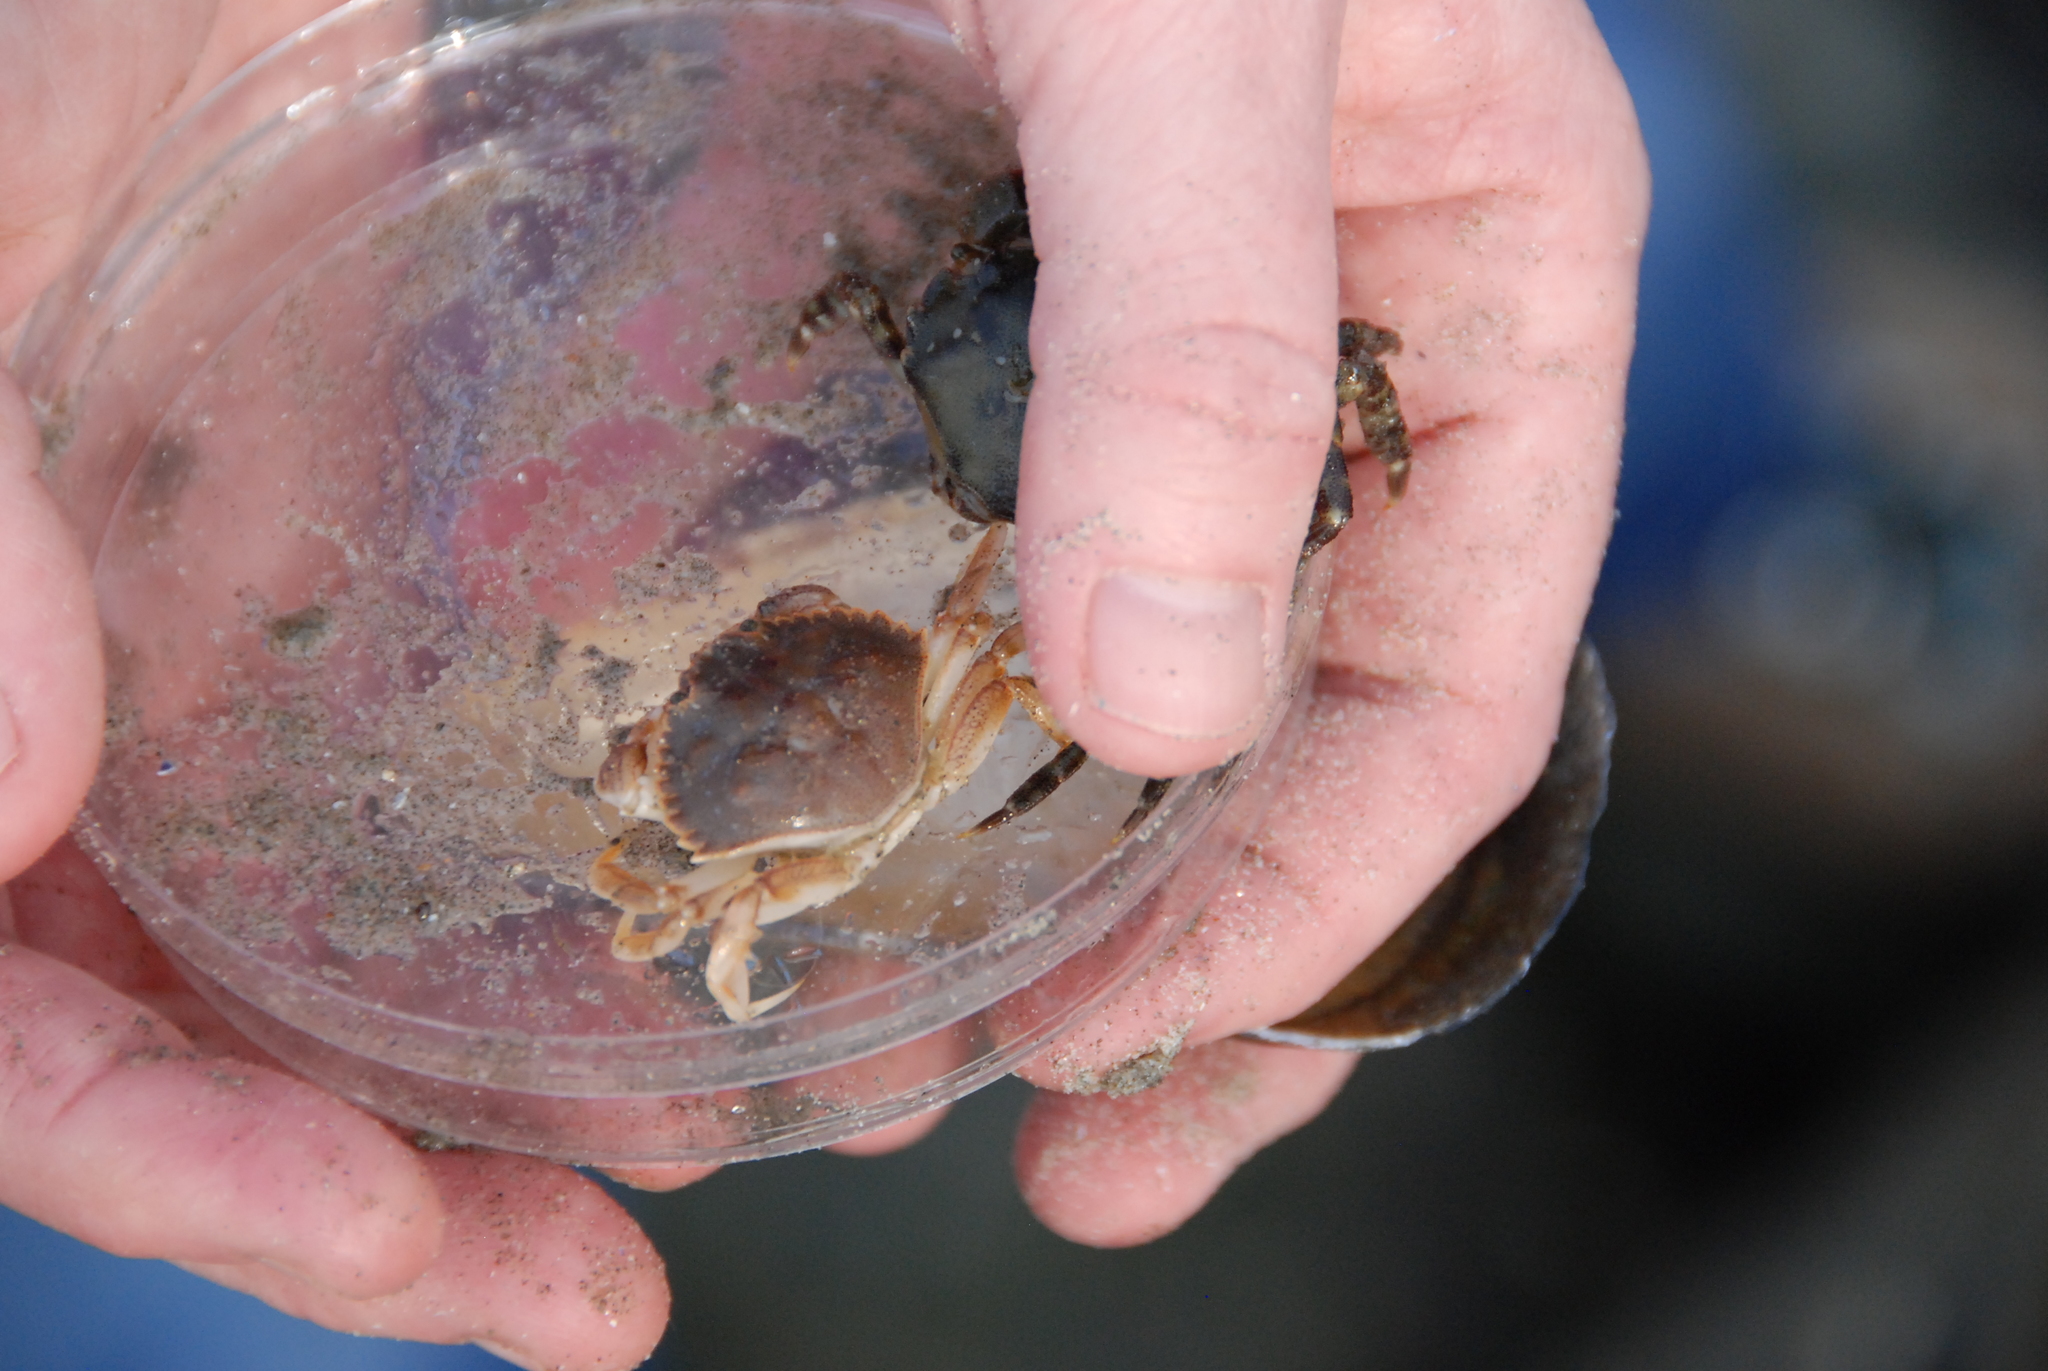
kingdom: Animalia
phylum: Arthropoda
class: Malacostraca
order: Decapoda
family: Cancridae
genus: Cancer
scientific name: Cancer irroratus
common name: Atlantic rock crab
